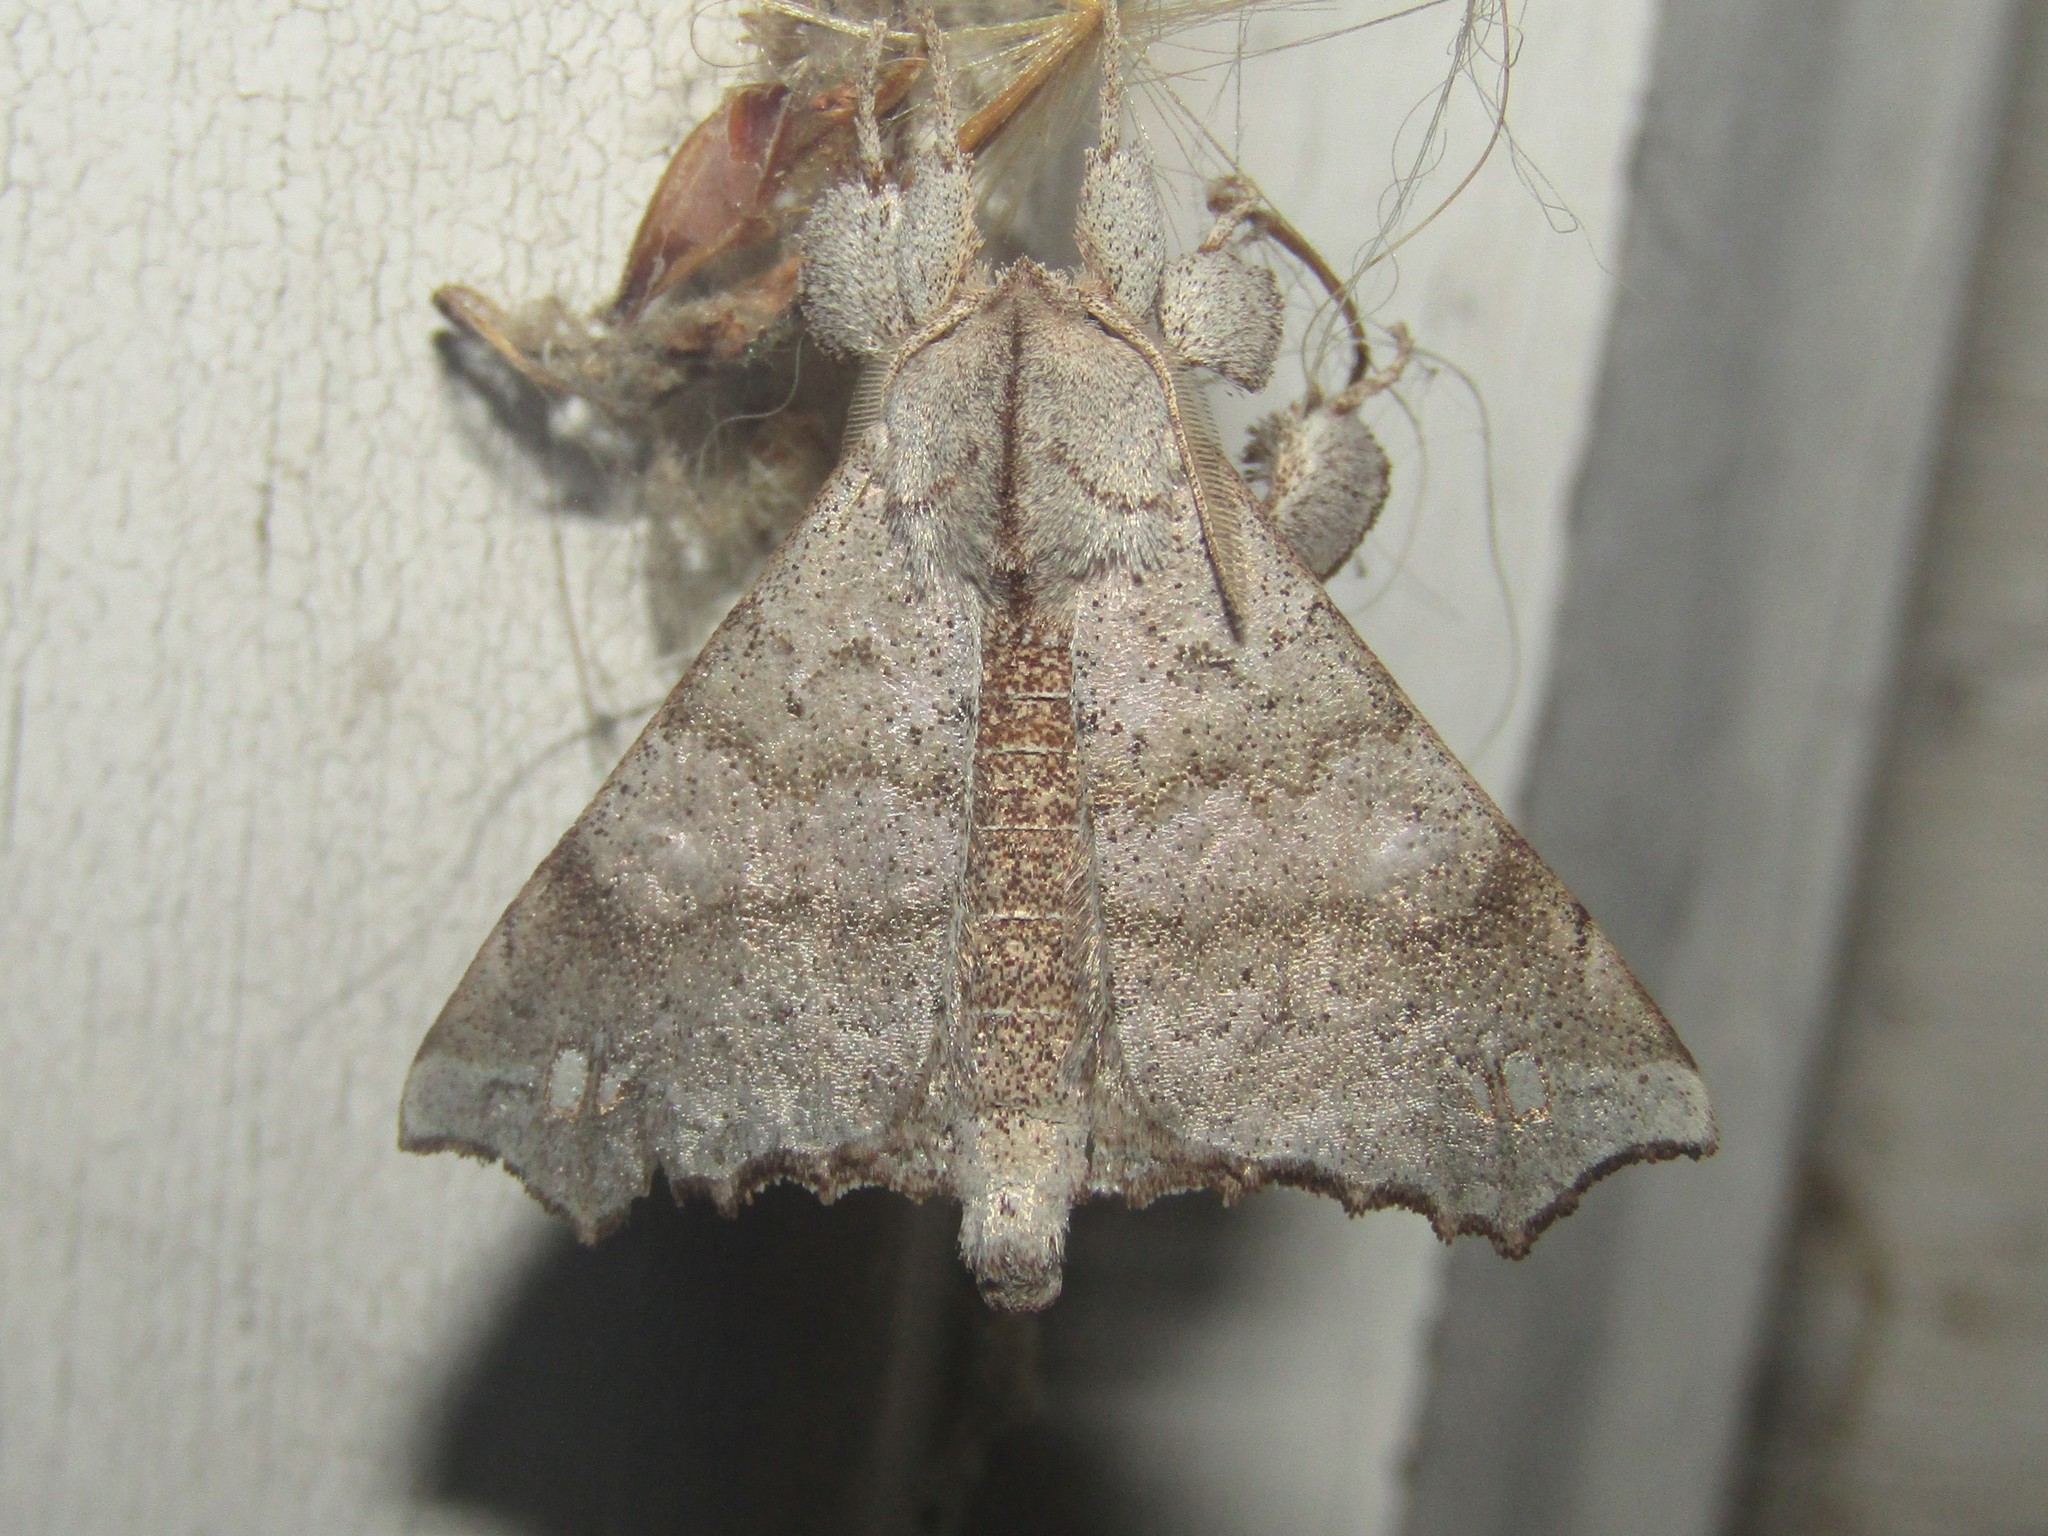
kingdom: Animalia
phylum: Arthropoda
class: Insecta
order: Lepidoptera
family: Apatelodidae
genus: Olceclostera
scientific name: Olceclostera angelica
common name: Angel moth
